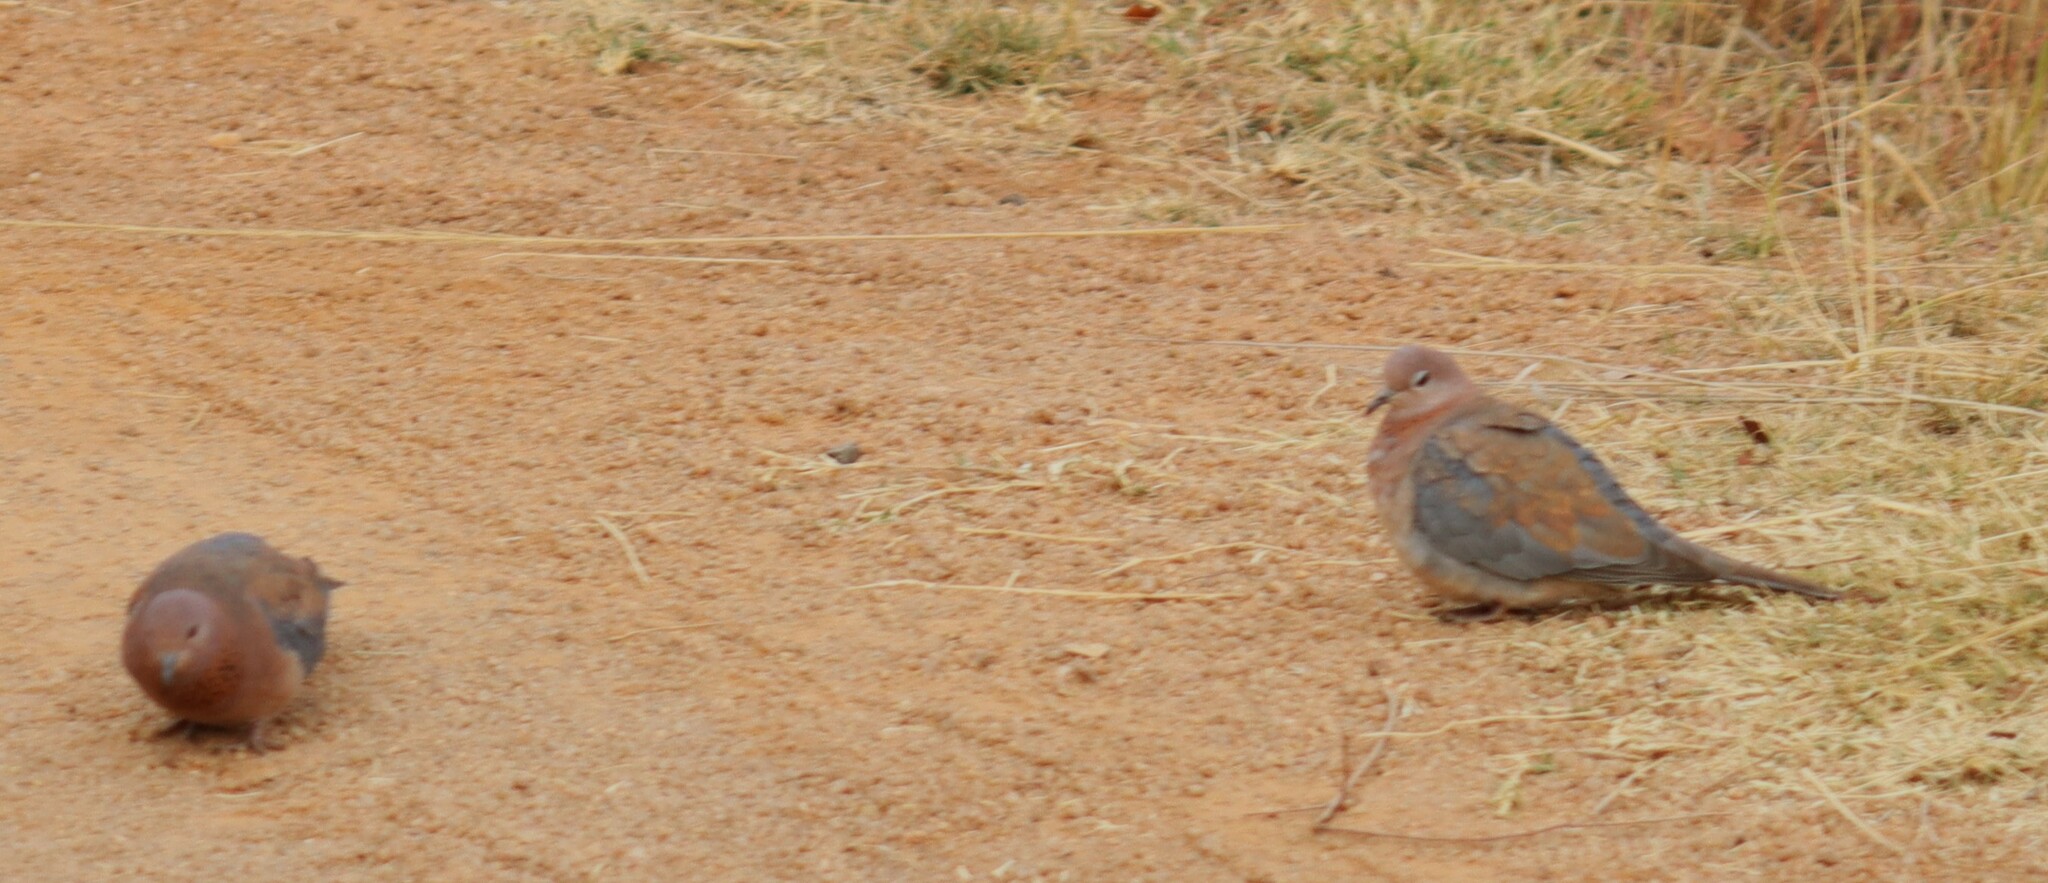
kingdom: Animalia
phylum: Chordata
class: Aves
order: Columbiformes
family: Columbidae
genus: Spilopelia
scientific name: Spilopelia senegalensis
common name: Laughing dove
